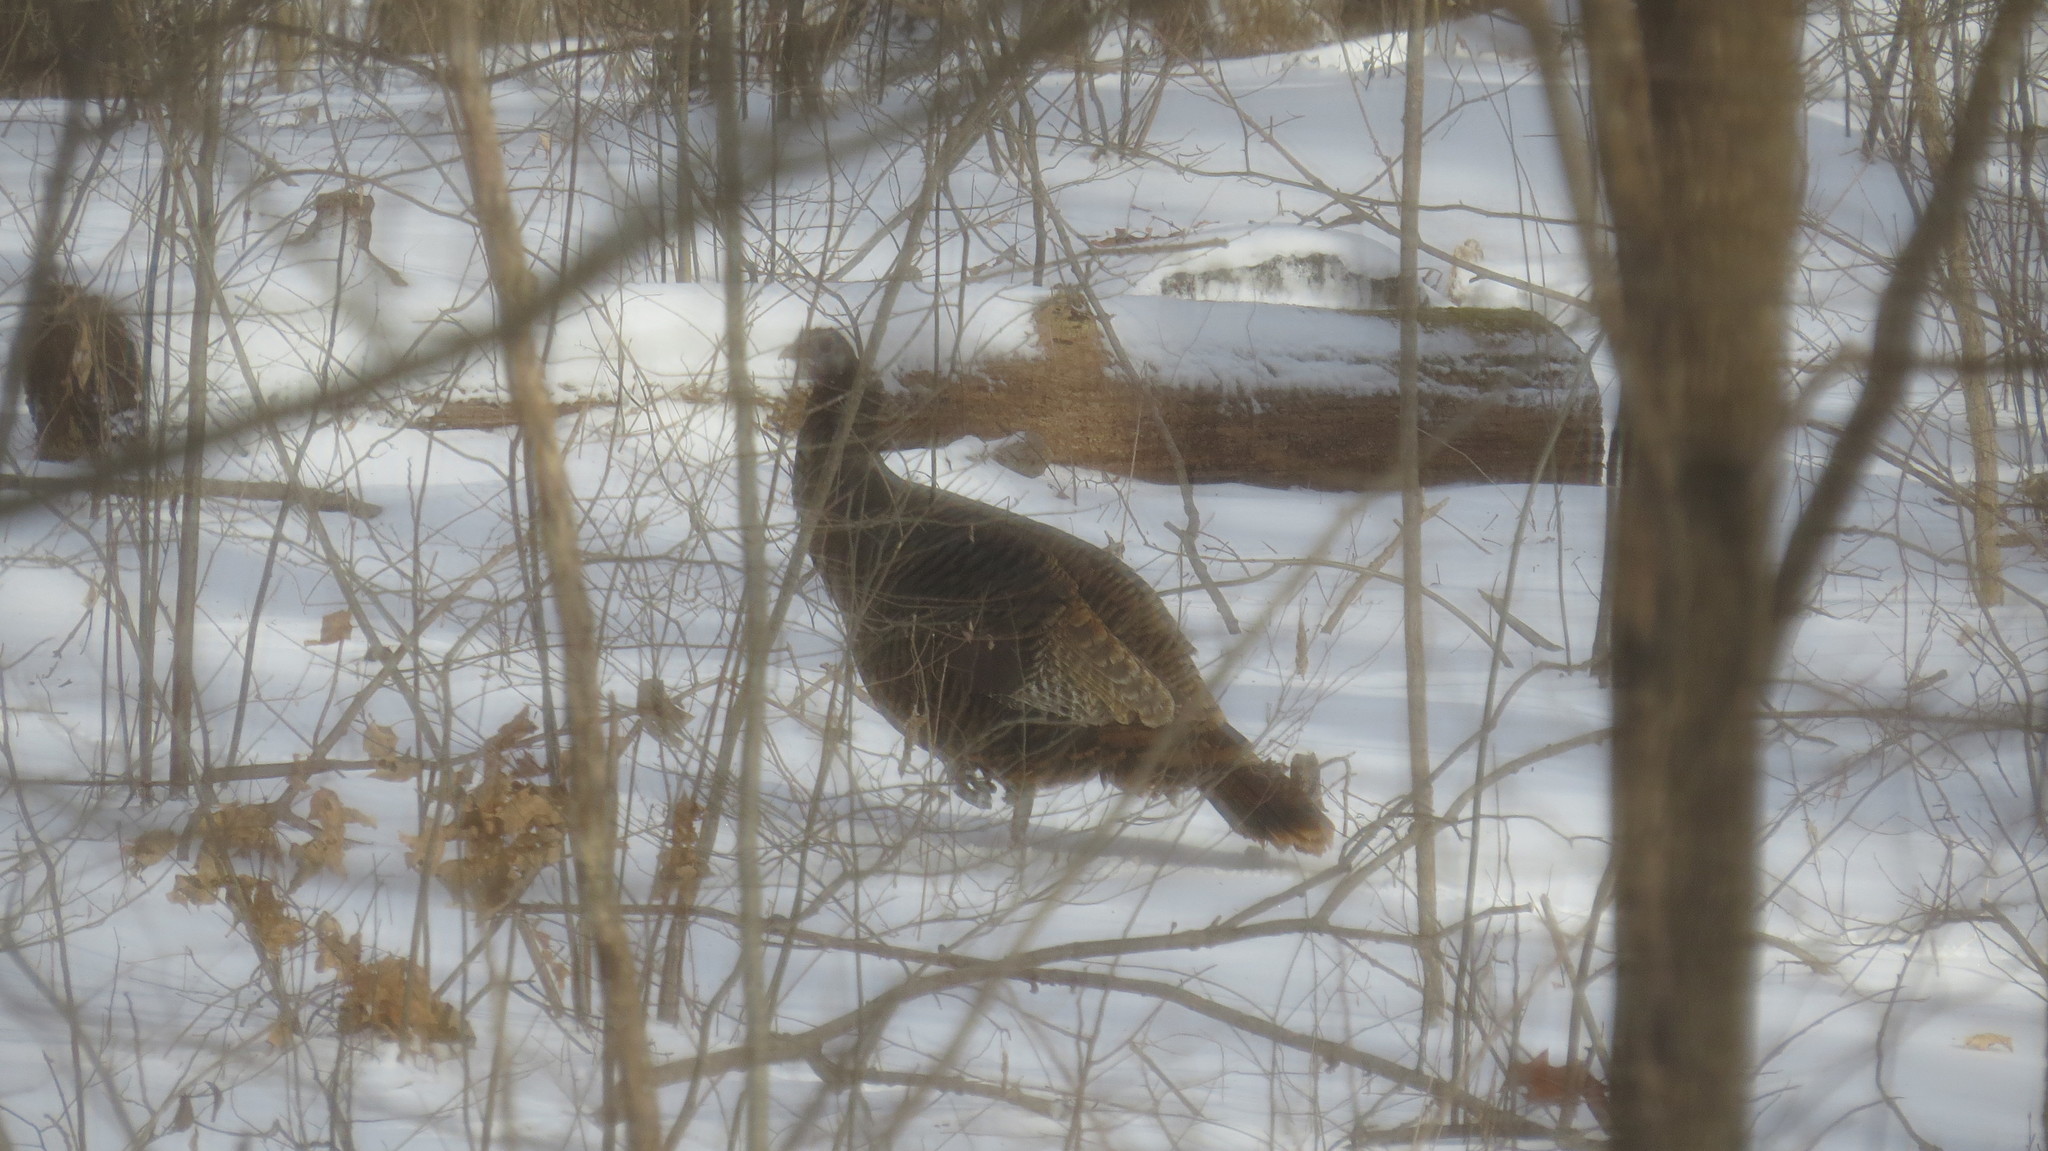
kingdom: Animalia
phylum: Chordata
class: Aves
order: Galliformes
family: Phasianidae
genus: Meleagris
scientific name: Meleagris gallopavo
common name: Wild turkey
